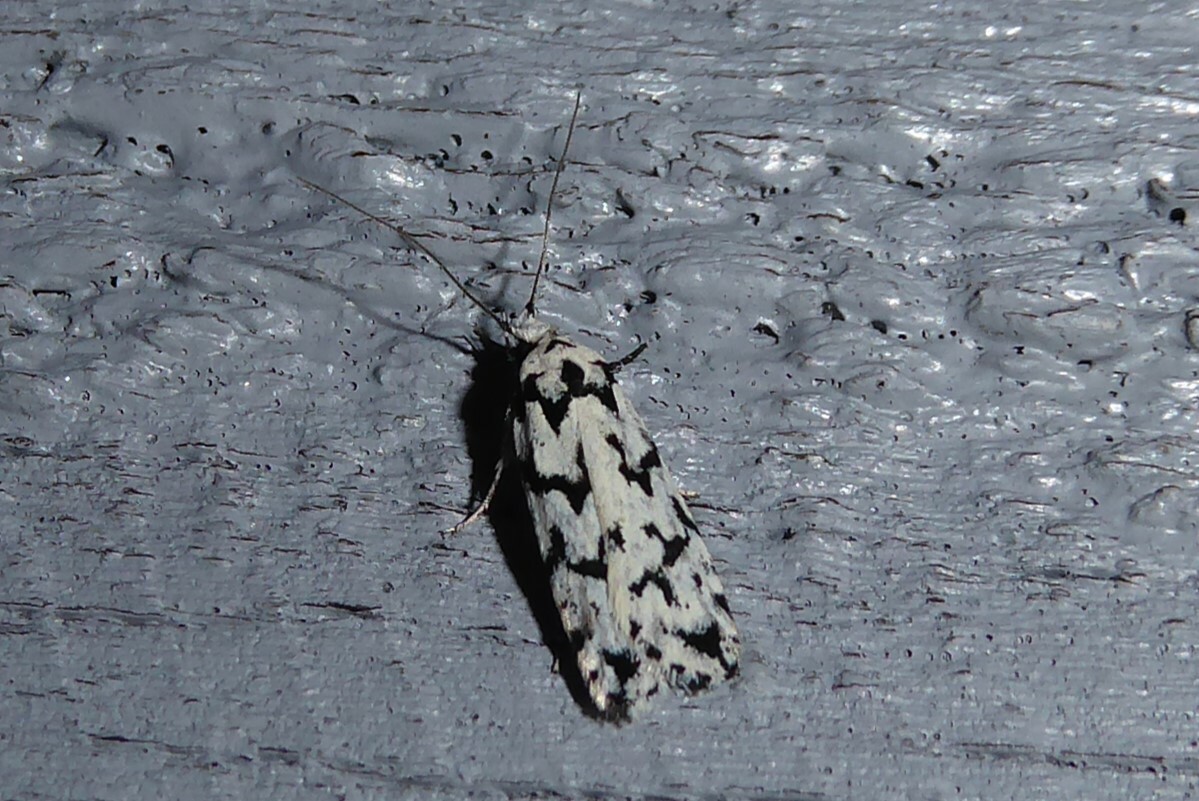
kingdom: Animalia
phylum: Arthropoda
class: Insecta
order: Lepidoptera
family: Oecophoridae
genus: Izatha
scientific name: Izatha katadiktya
